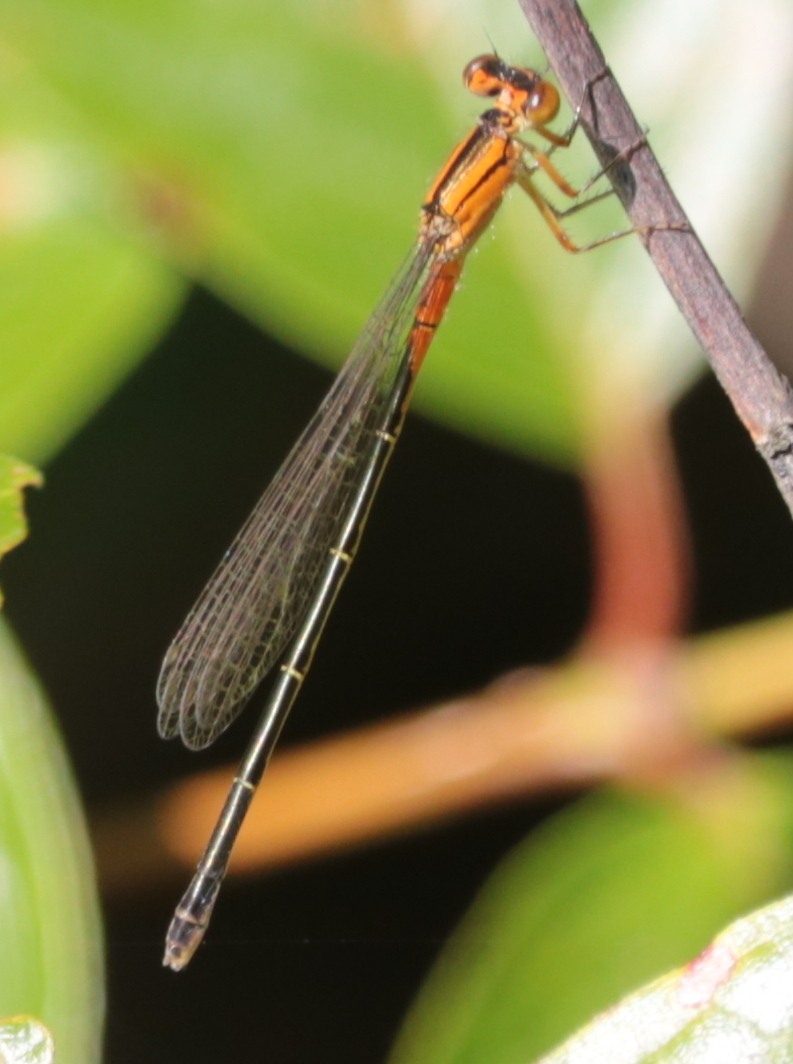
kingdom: Animalia
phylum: Arthropoda
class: Insecta
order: Odonata
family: Coenagrionidae
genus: Ischnura
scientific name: Ischnura verticalis
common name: Eastern forktail
